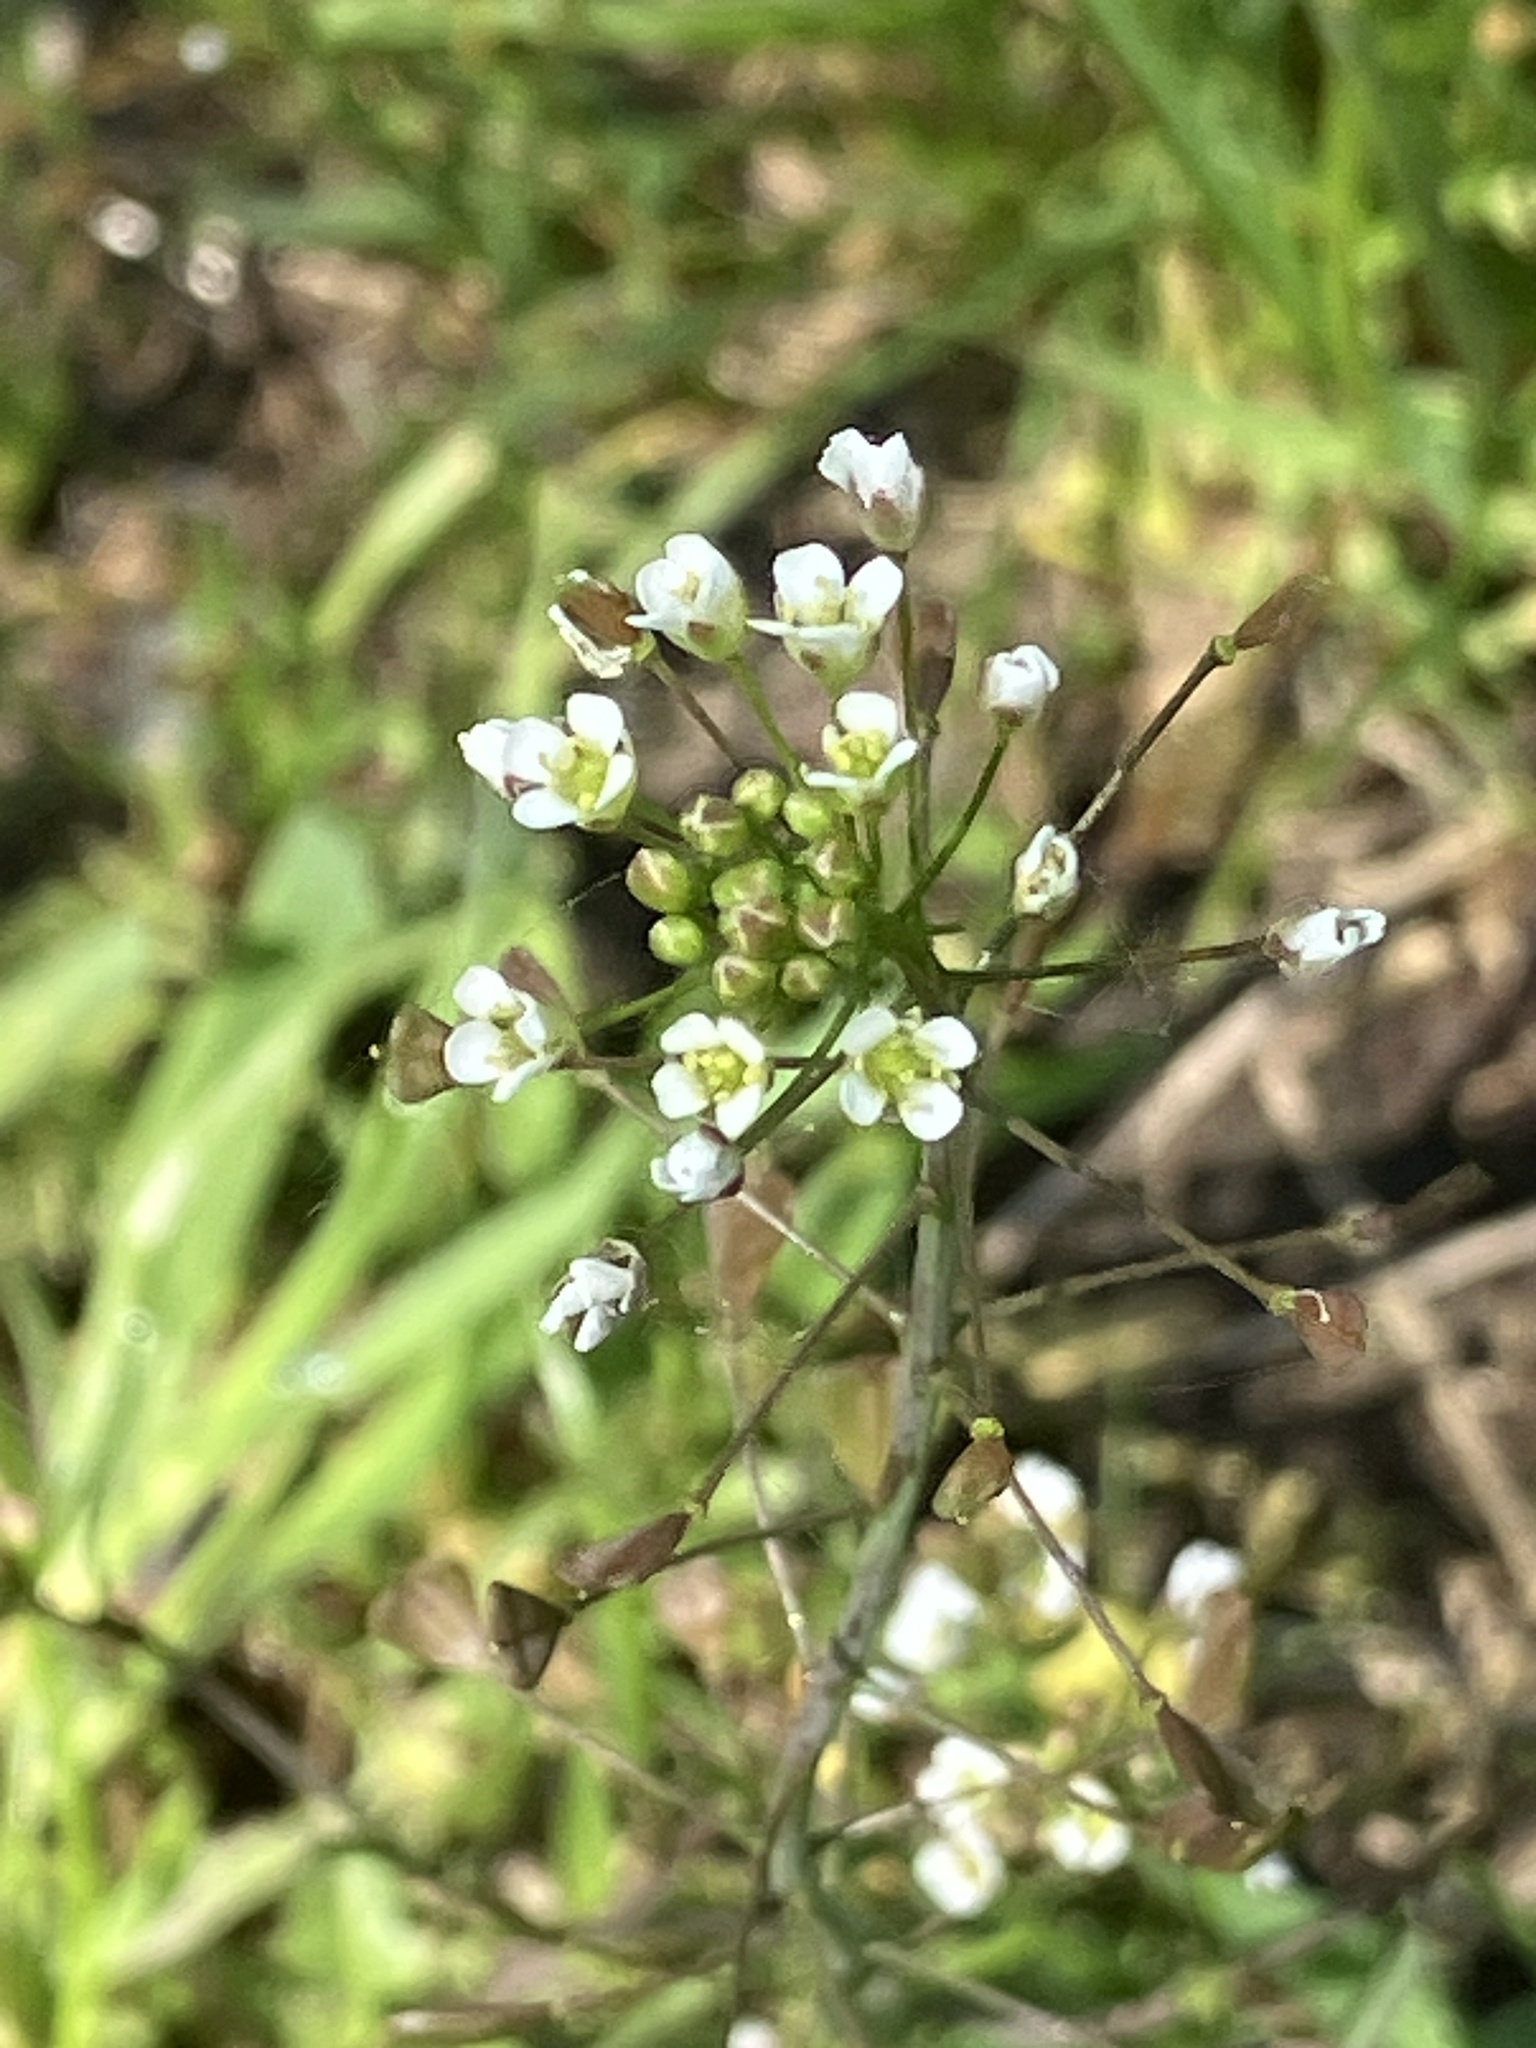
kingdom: Plantae
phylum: Tracheophyta
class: Magnoliopsida
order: Brassicales
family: Brassicaceae
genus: Capsella
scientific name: Capsella bursa-pastoris
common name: Shepherd's purse
